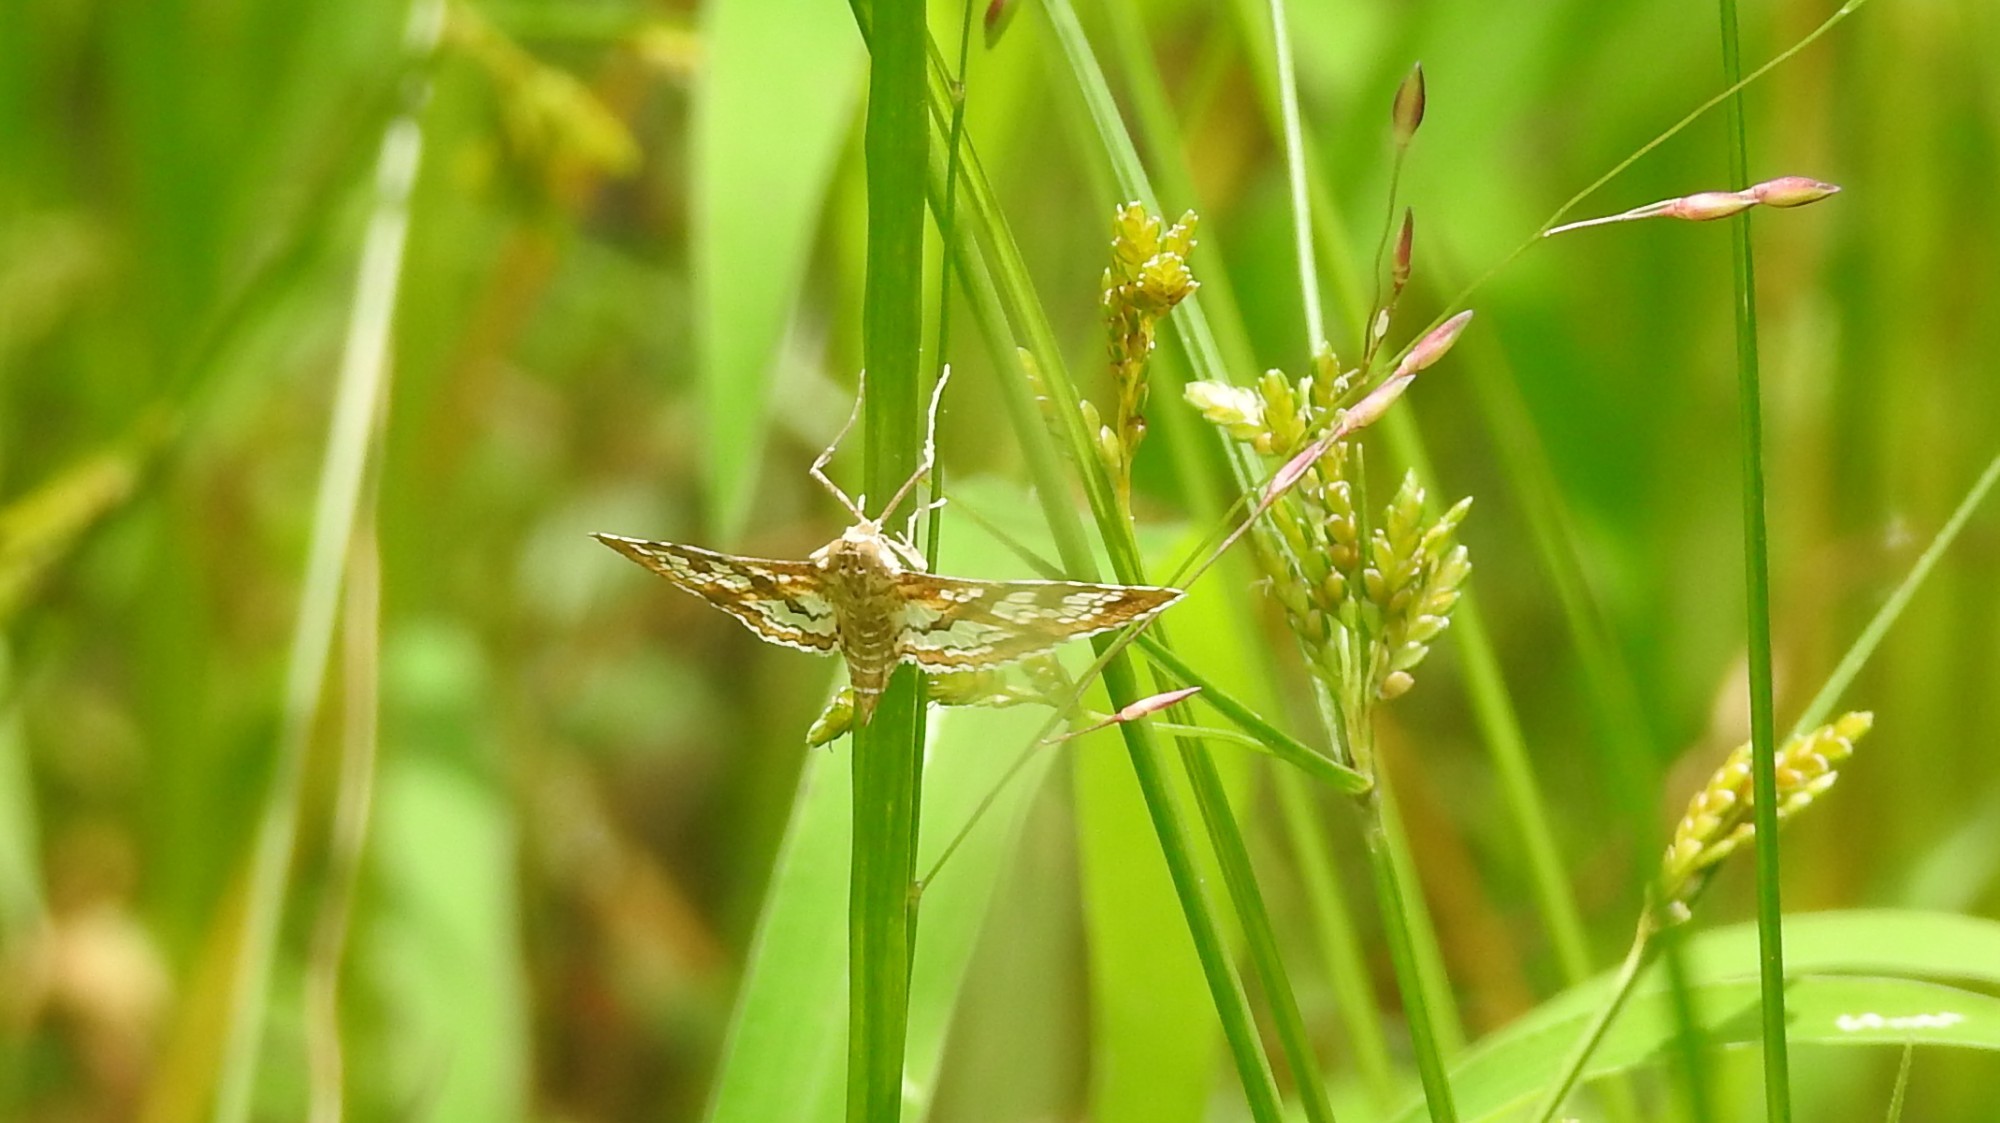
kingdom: Animalia
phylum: Arthropoda
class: Insecta
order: Lepidoptera
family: Crambidae
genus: Sameodes
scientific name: Sameodes cancellalis
